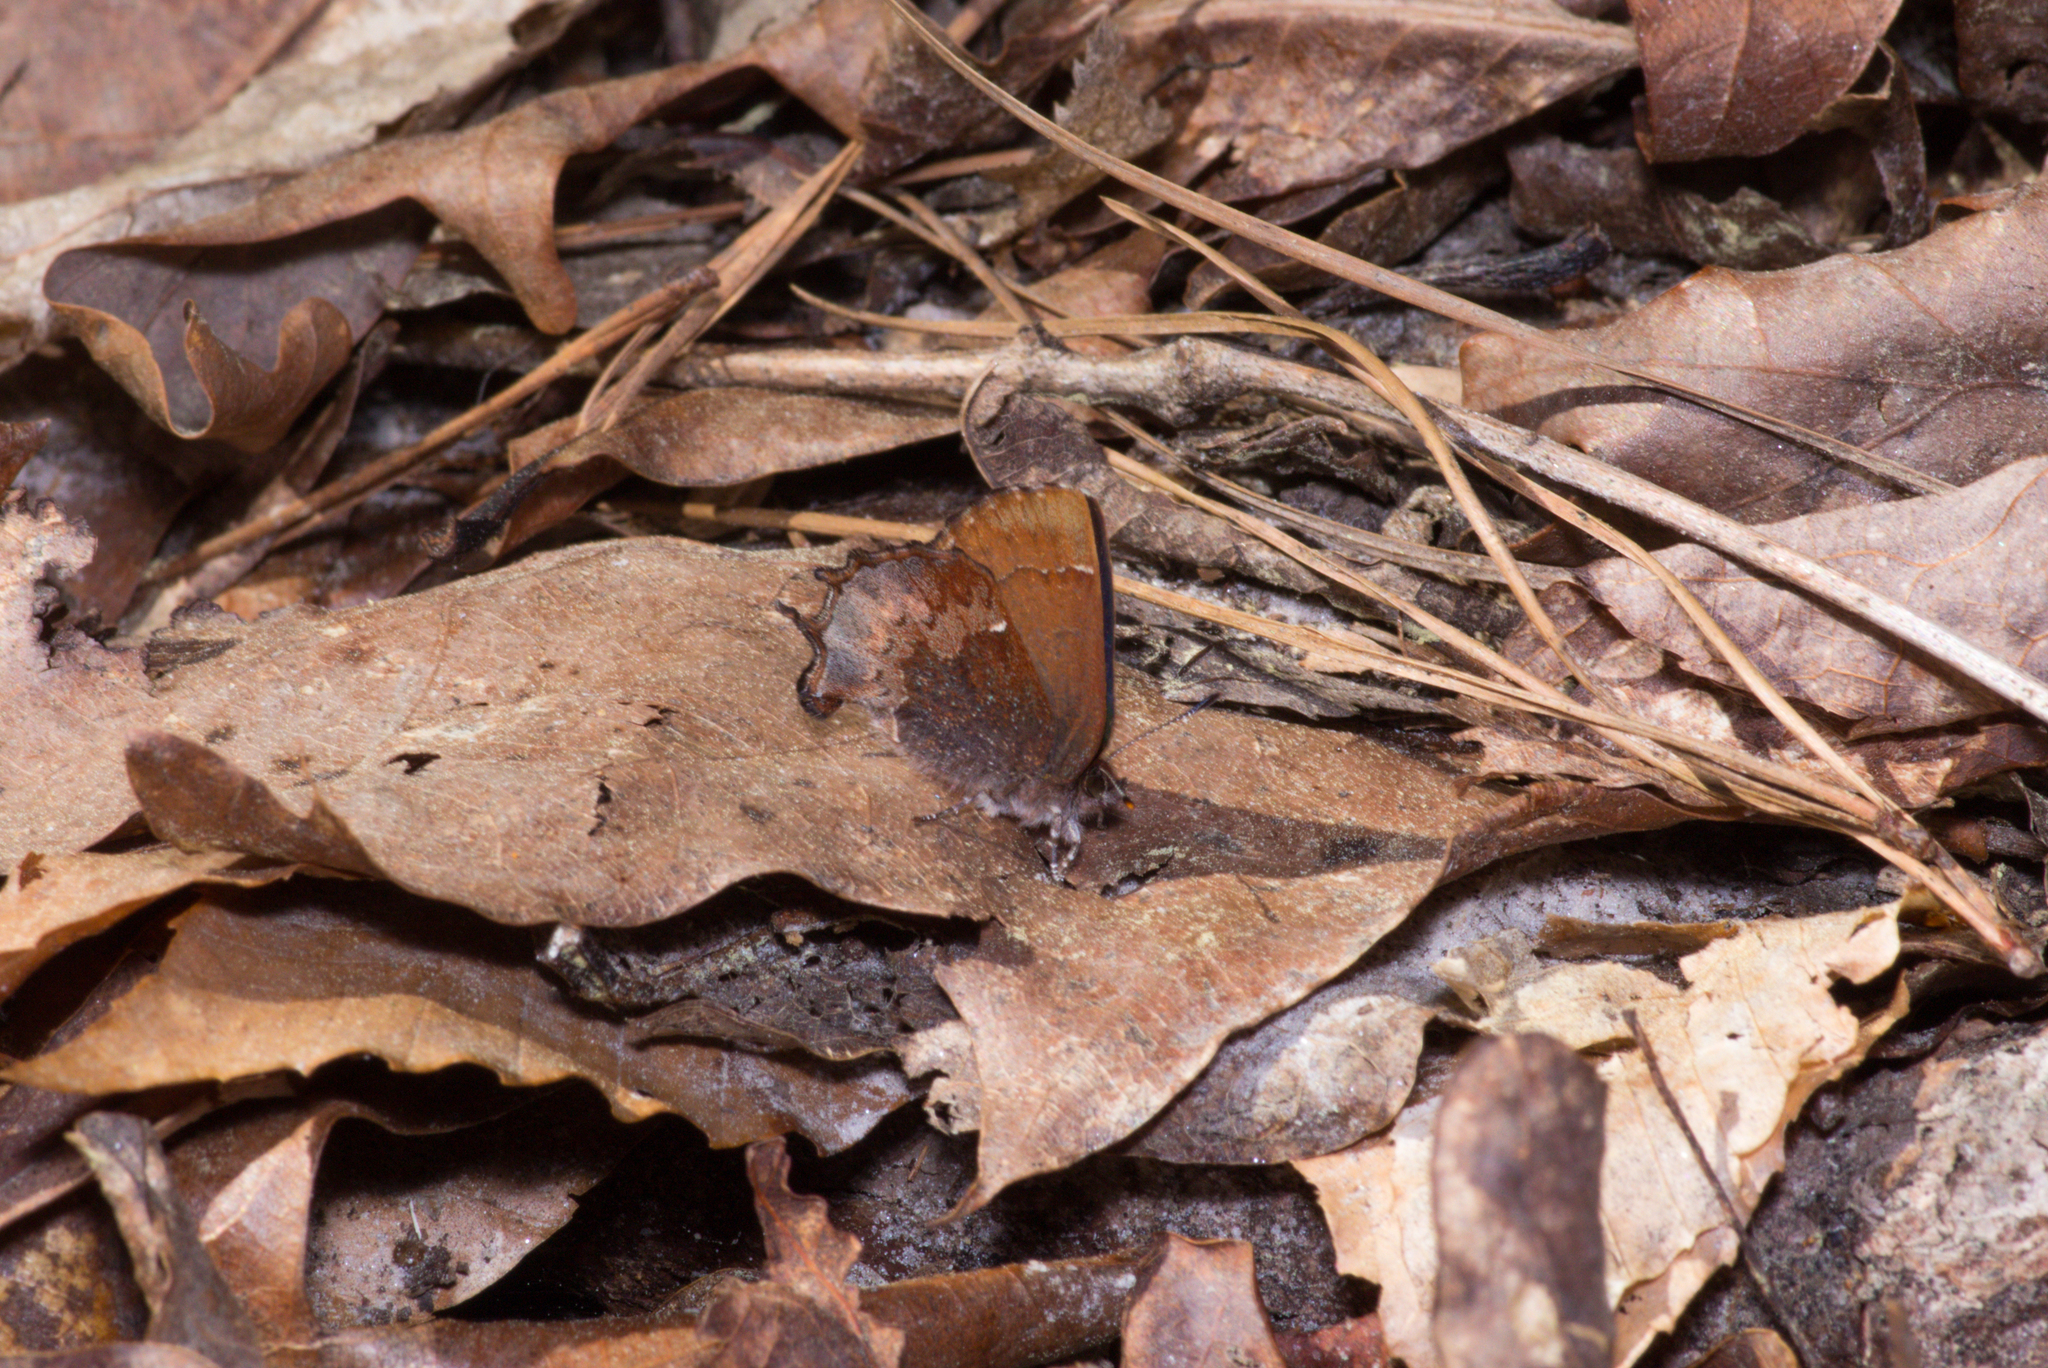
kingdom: Animalia
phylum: Arthropoda
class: Insecta
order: Lepidoptera
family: Lycaenidae
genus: Incisalia
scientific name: Incisalia henrici
